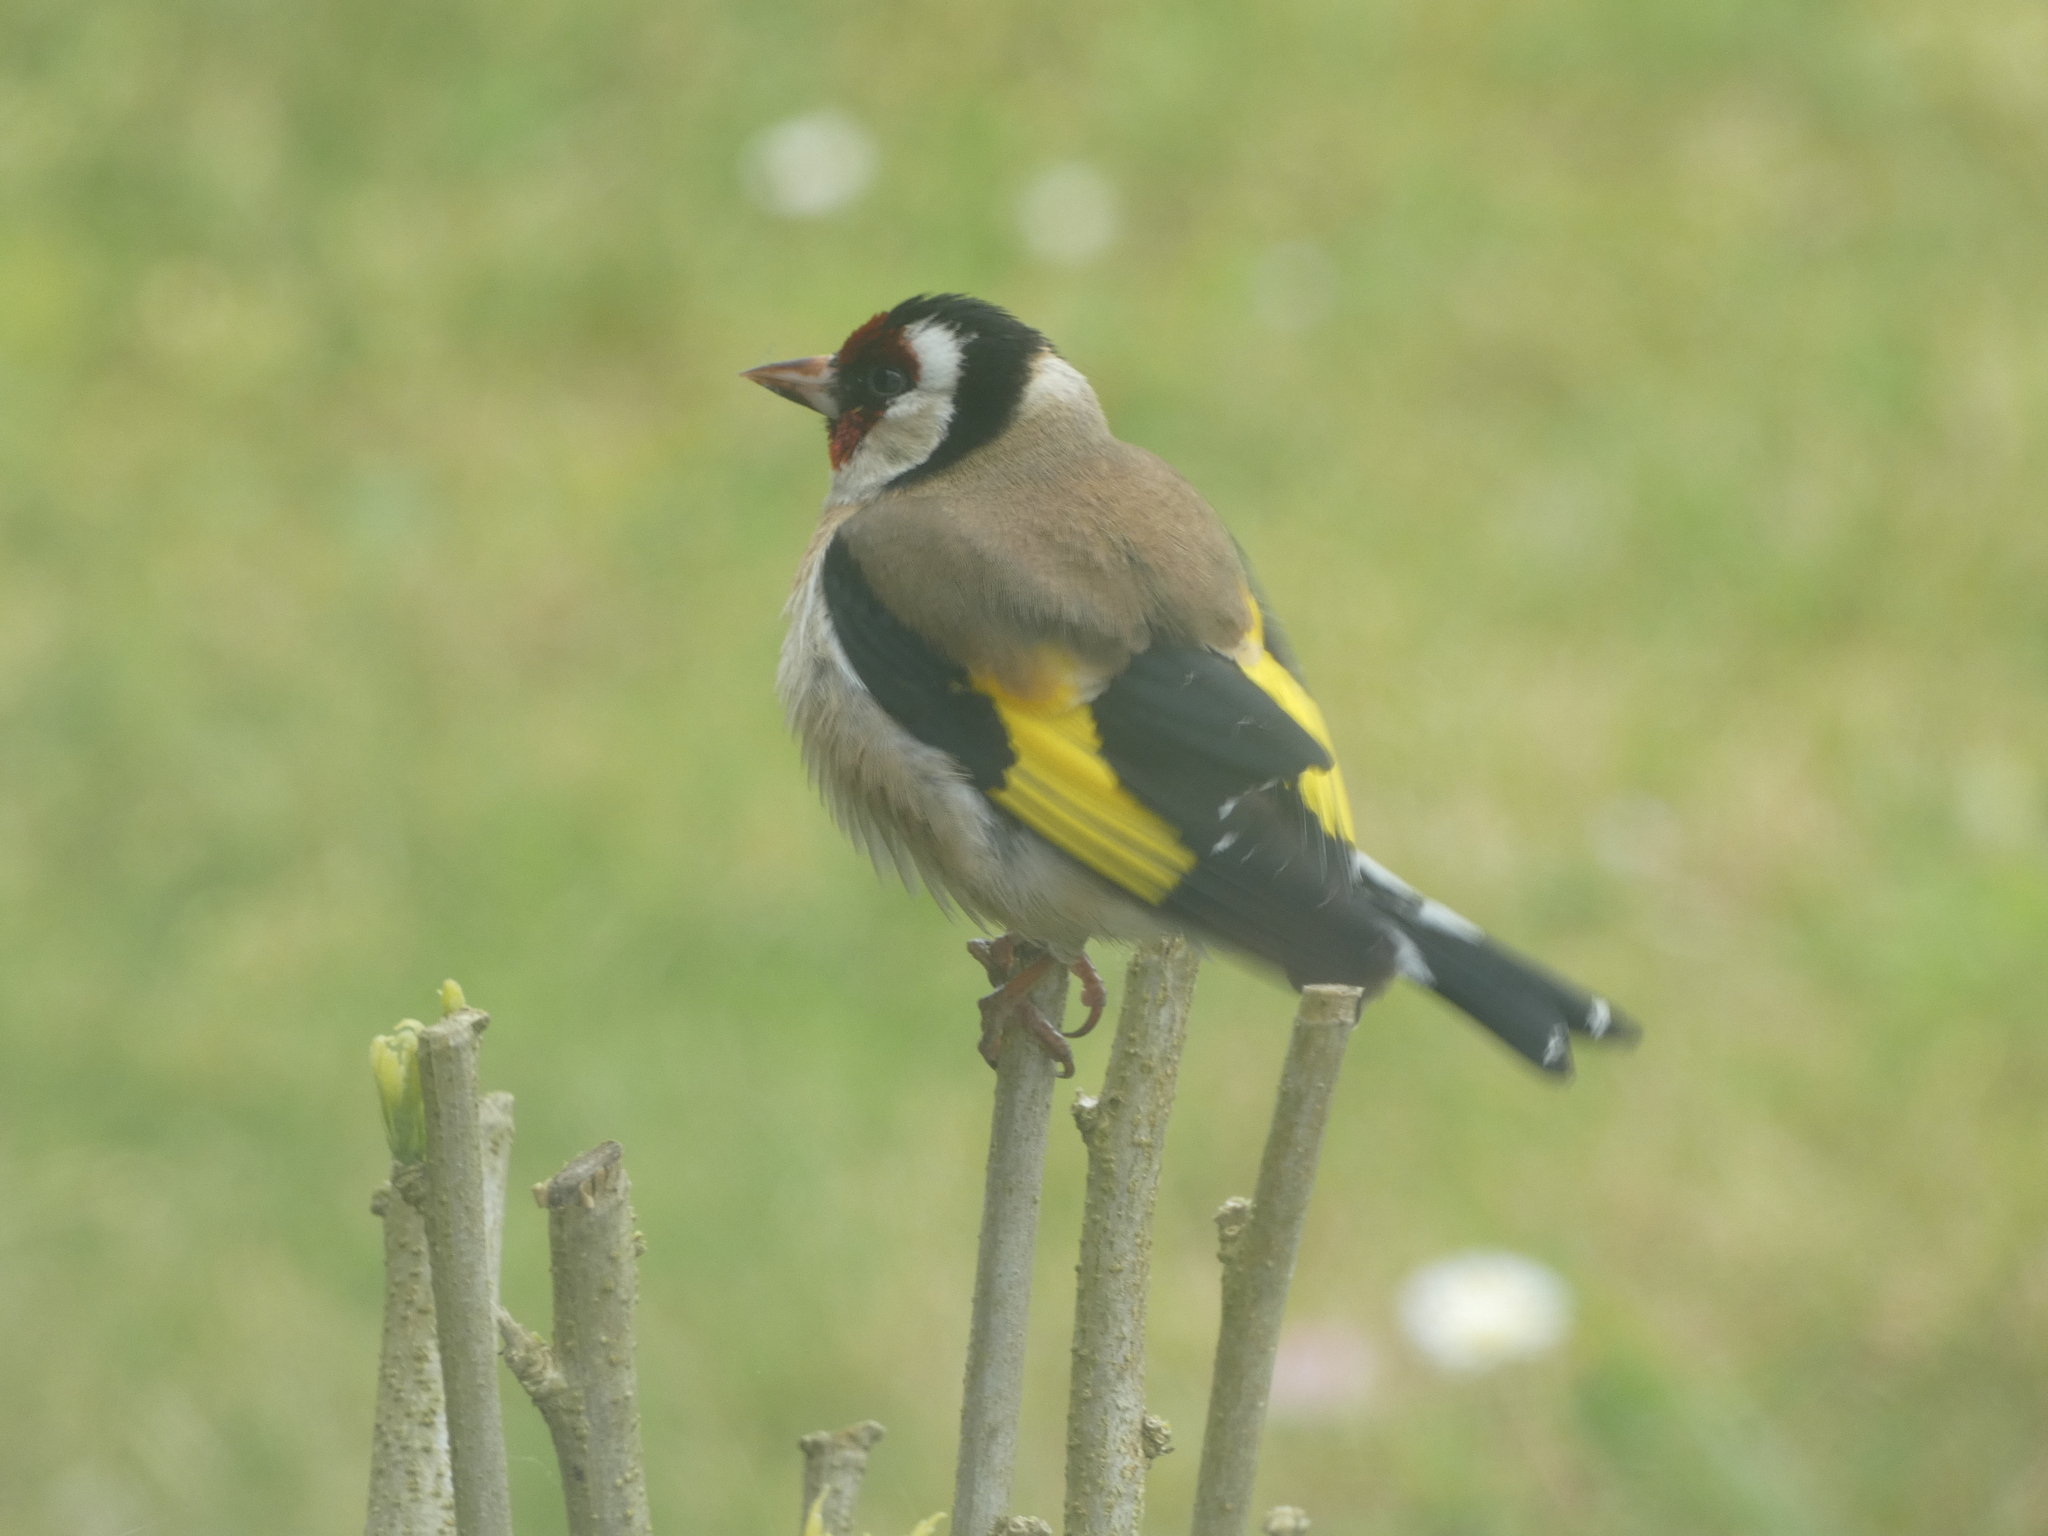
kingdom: Animalia
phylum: Chordata
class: Aves
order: Passeriformes
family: Fringillidae
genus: Carduelis
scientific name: Carduelis carduelis
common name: European goldfinch
